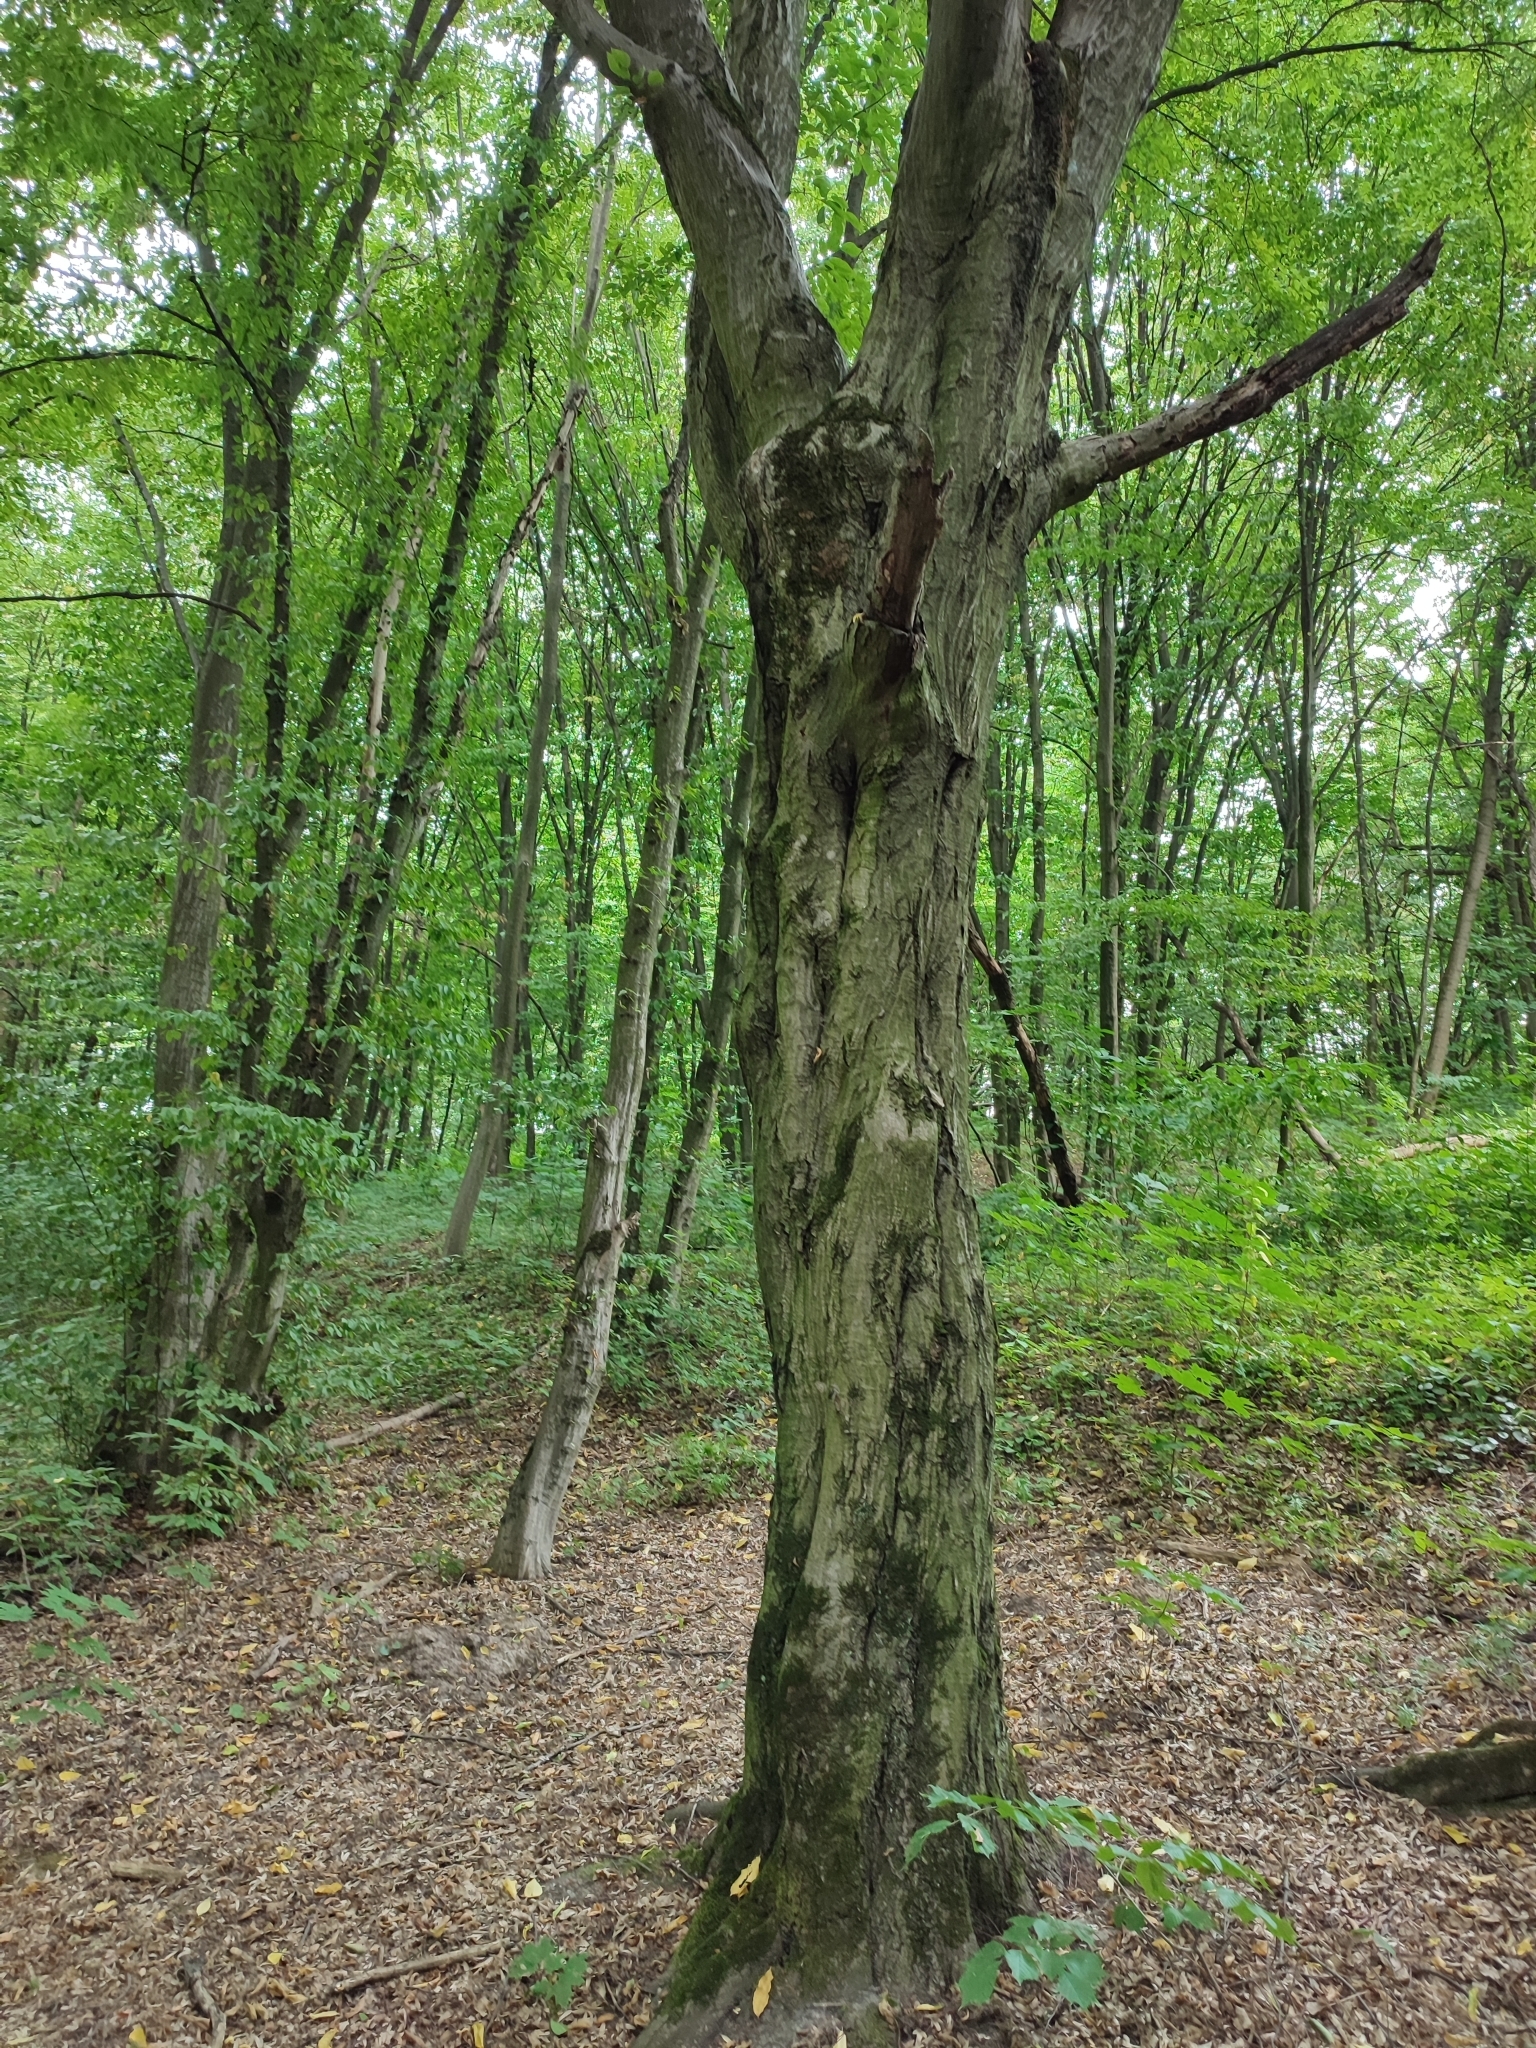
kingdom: Plantae
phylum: Tracheophyta
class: Magnoliopsida
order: Fagales
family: Betulaceae
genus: Carpinus
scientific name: Carpinus betulus
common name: Hornbeam
